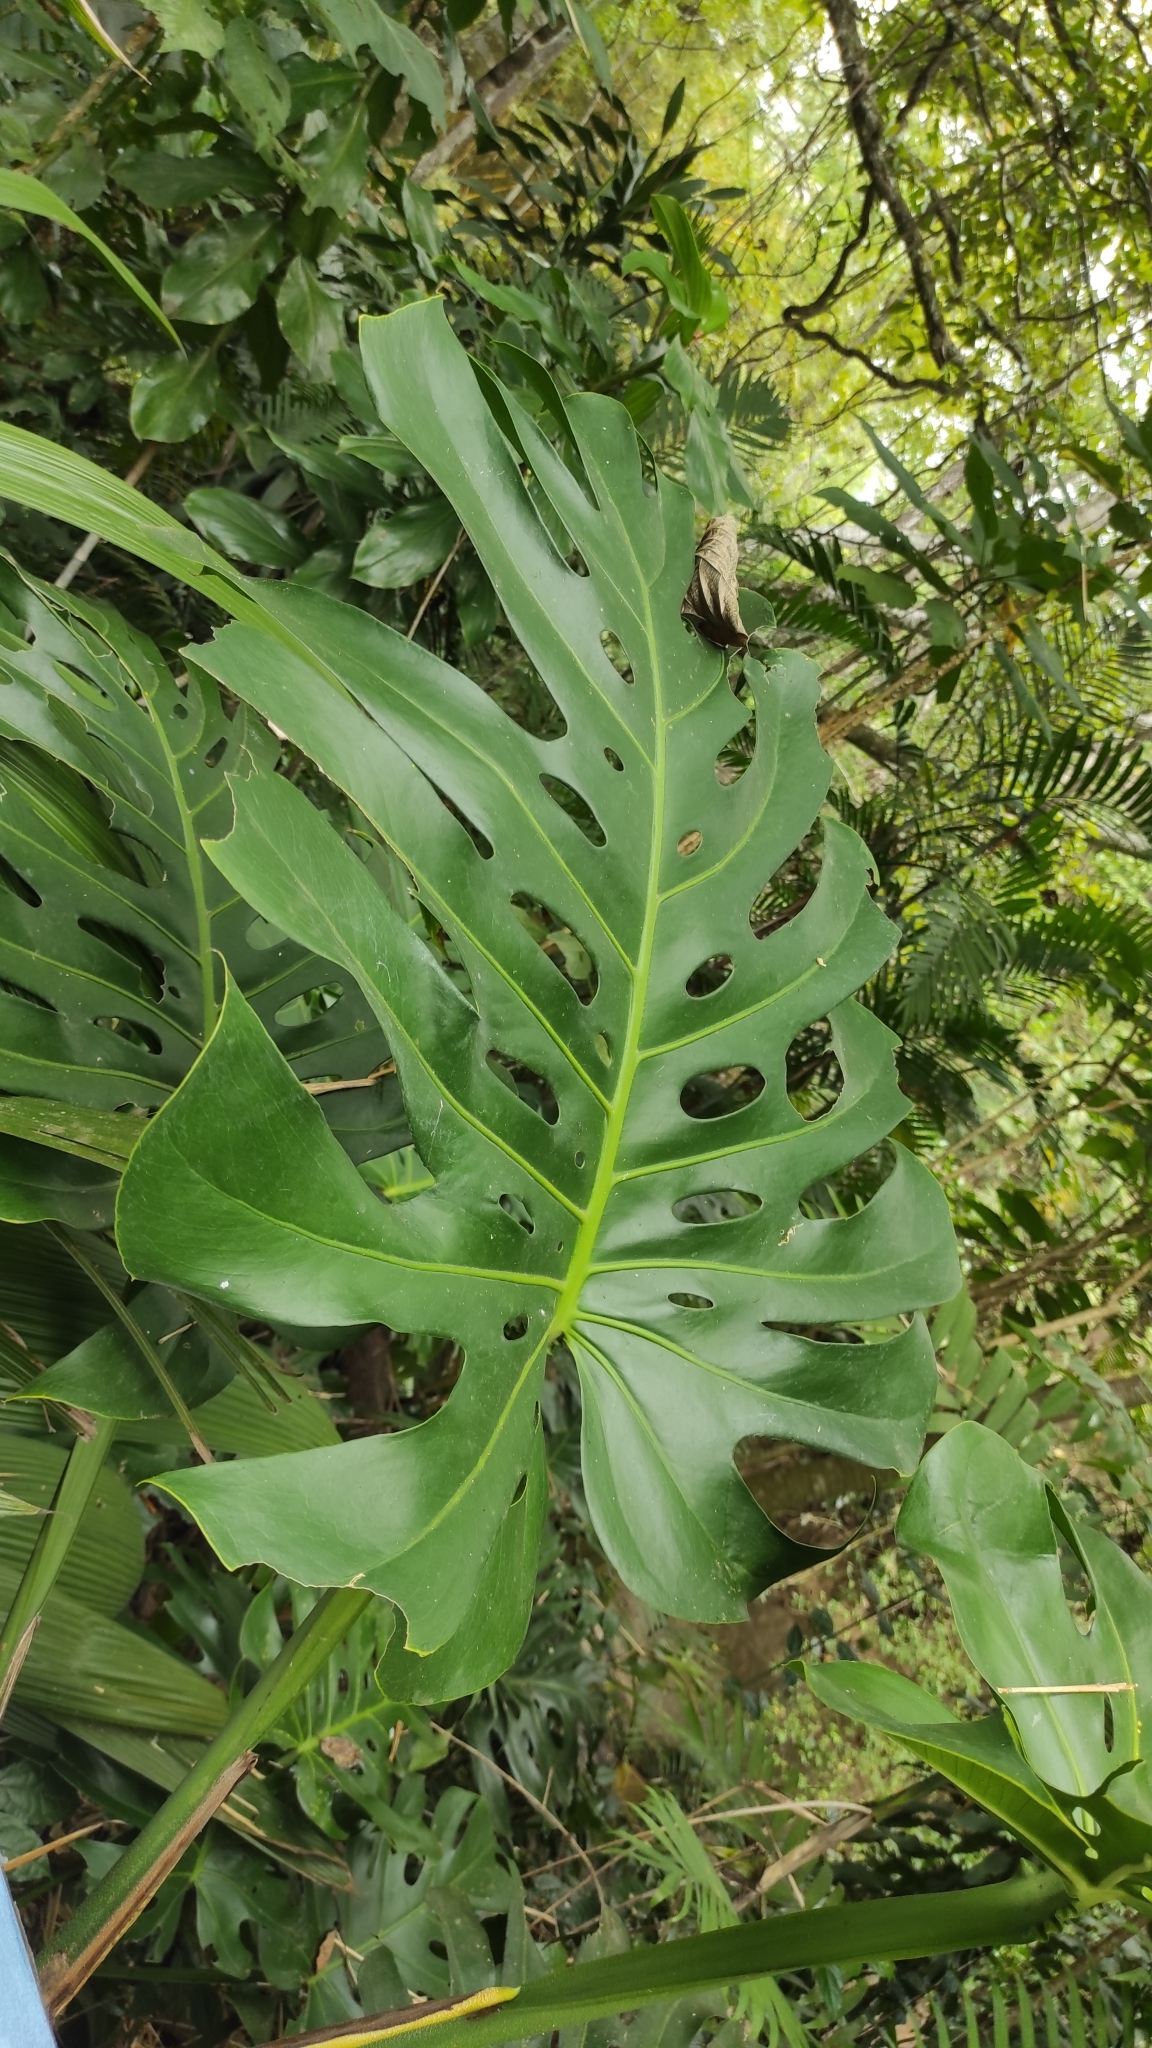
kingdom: Plantae
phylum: Tracheophyta
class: Liliopsida
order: Alismatales
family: Araceae
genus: Monstera
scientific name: Monstera deliciosa
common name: Cut-leaf-philodendron
